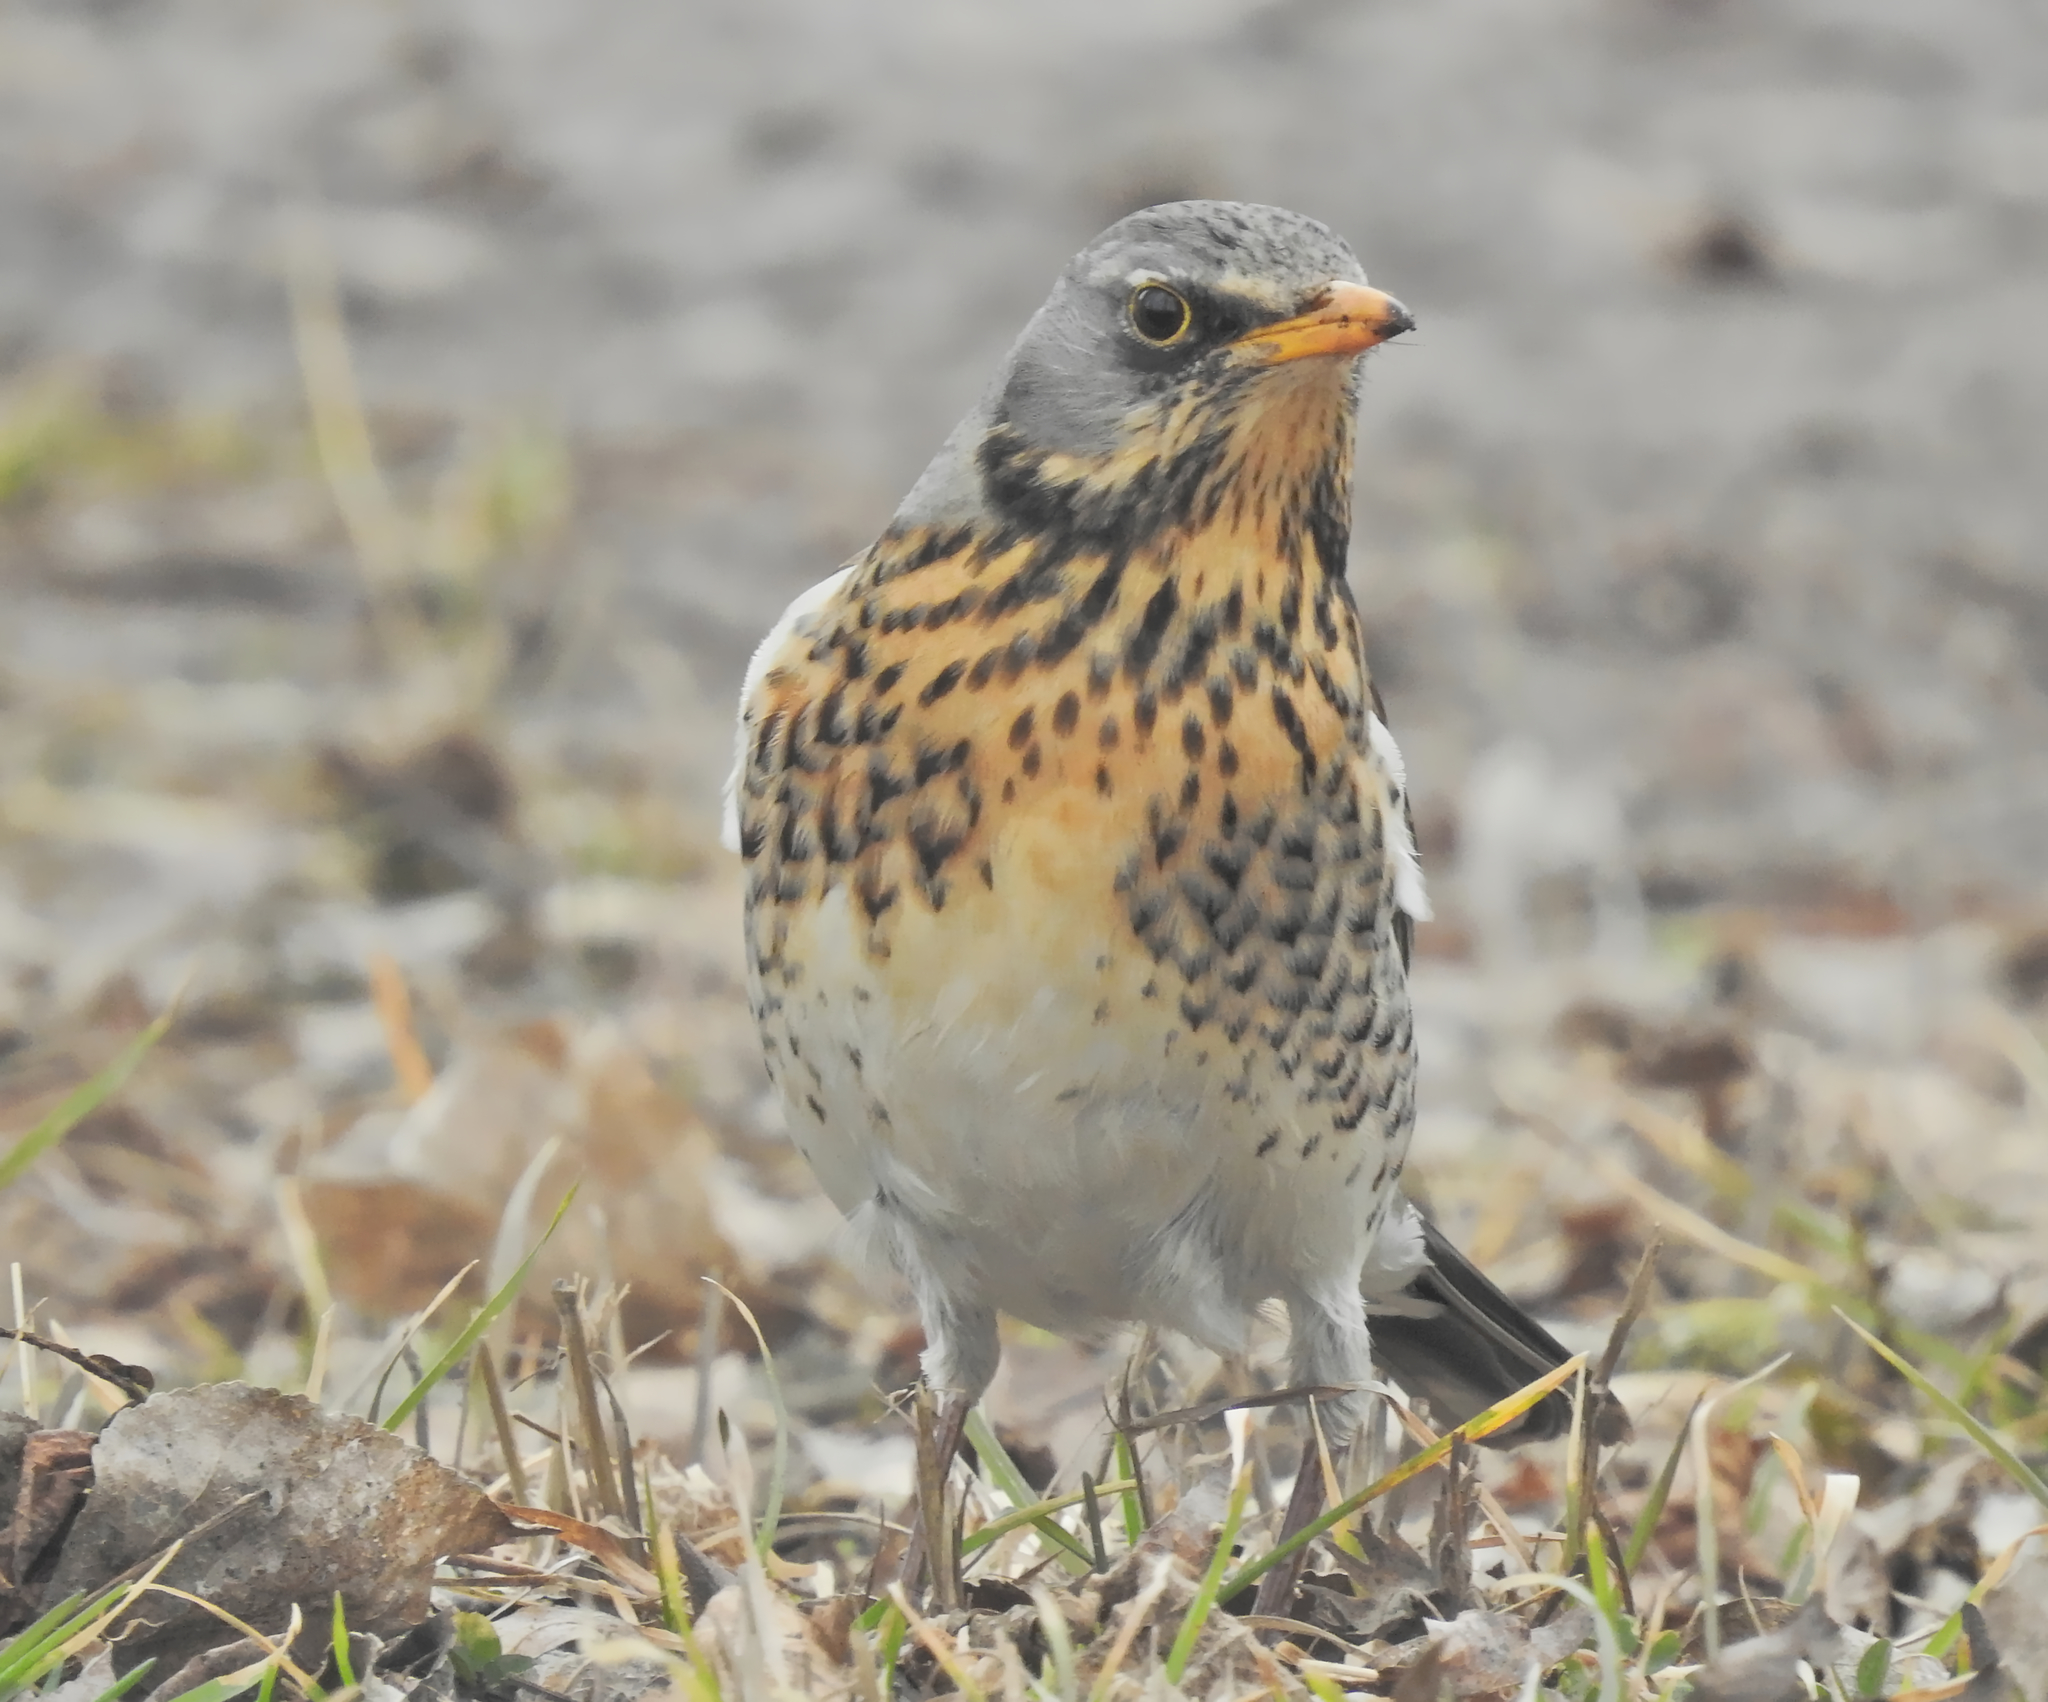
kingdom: Animalia
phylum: Chordata
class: Aves
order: Passeriformes
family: Turdidae
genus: Turdus
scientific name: Turdus pilaris
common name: Fieldfare
